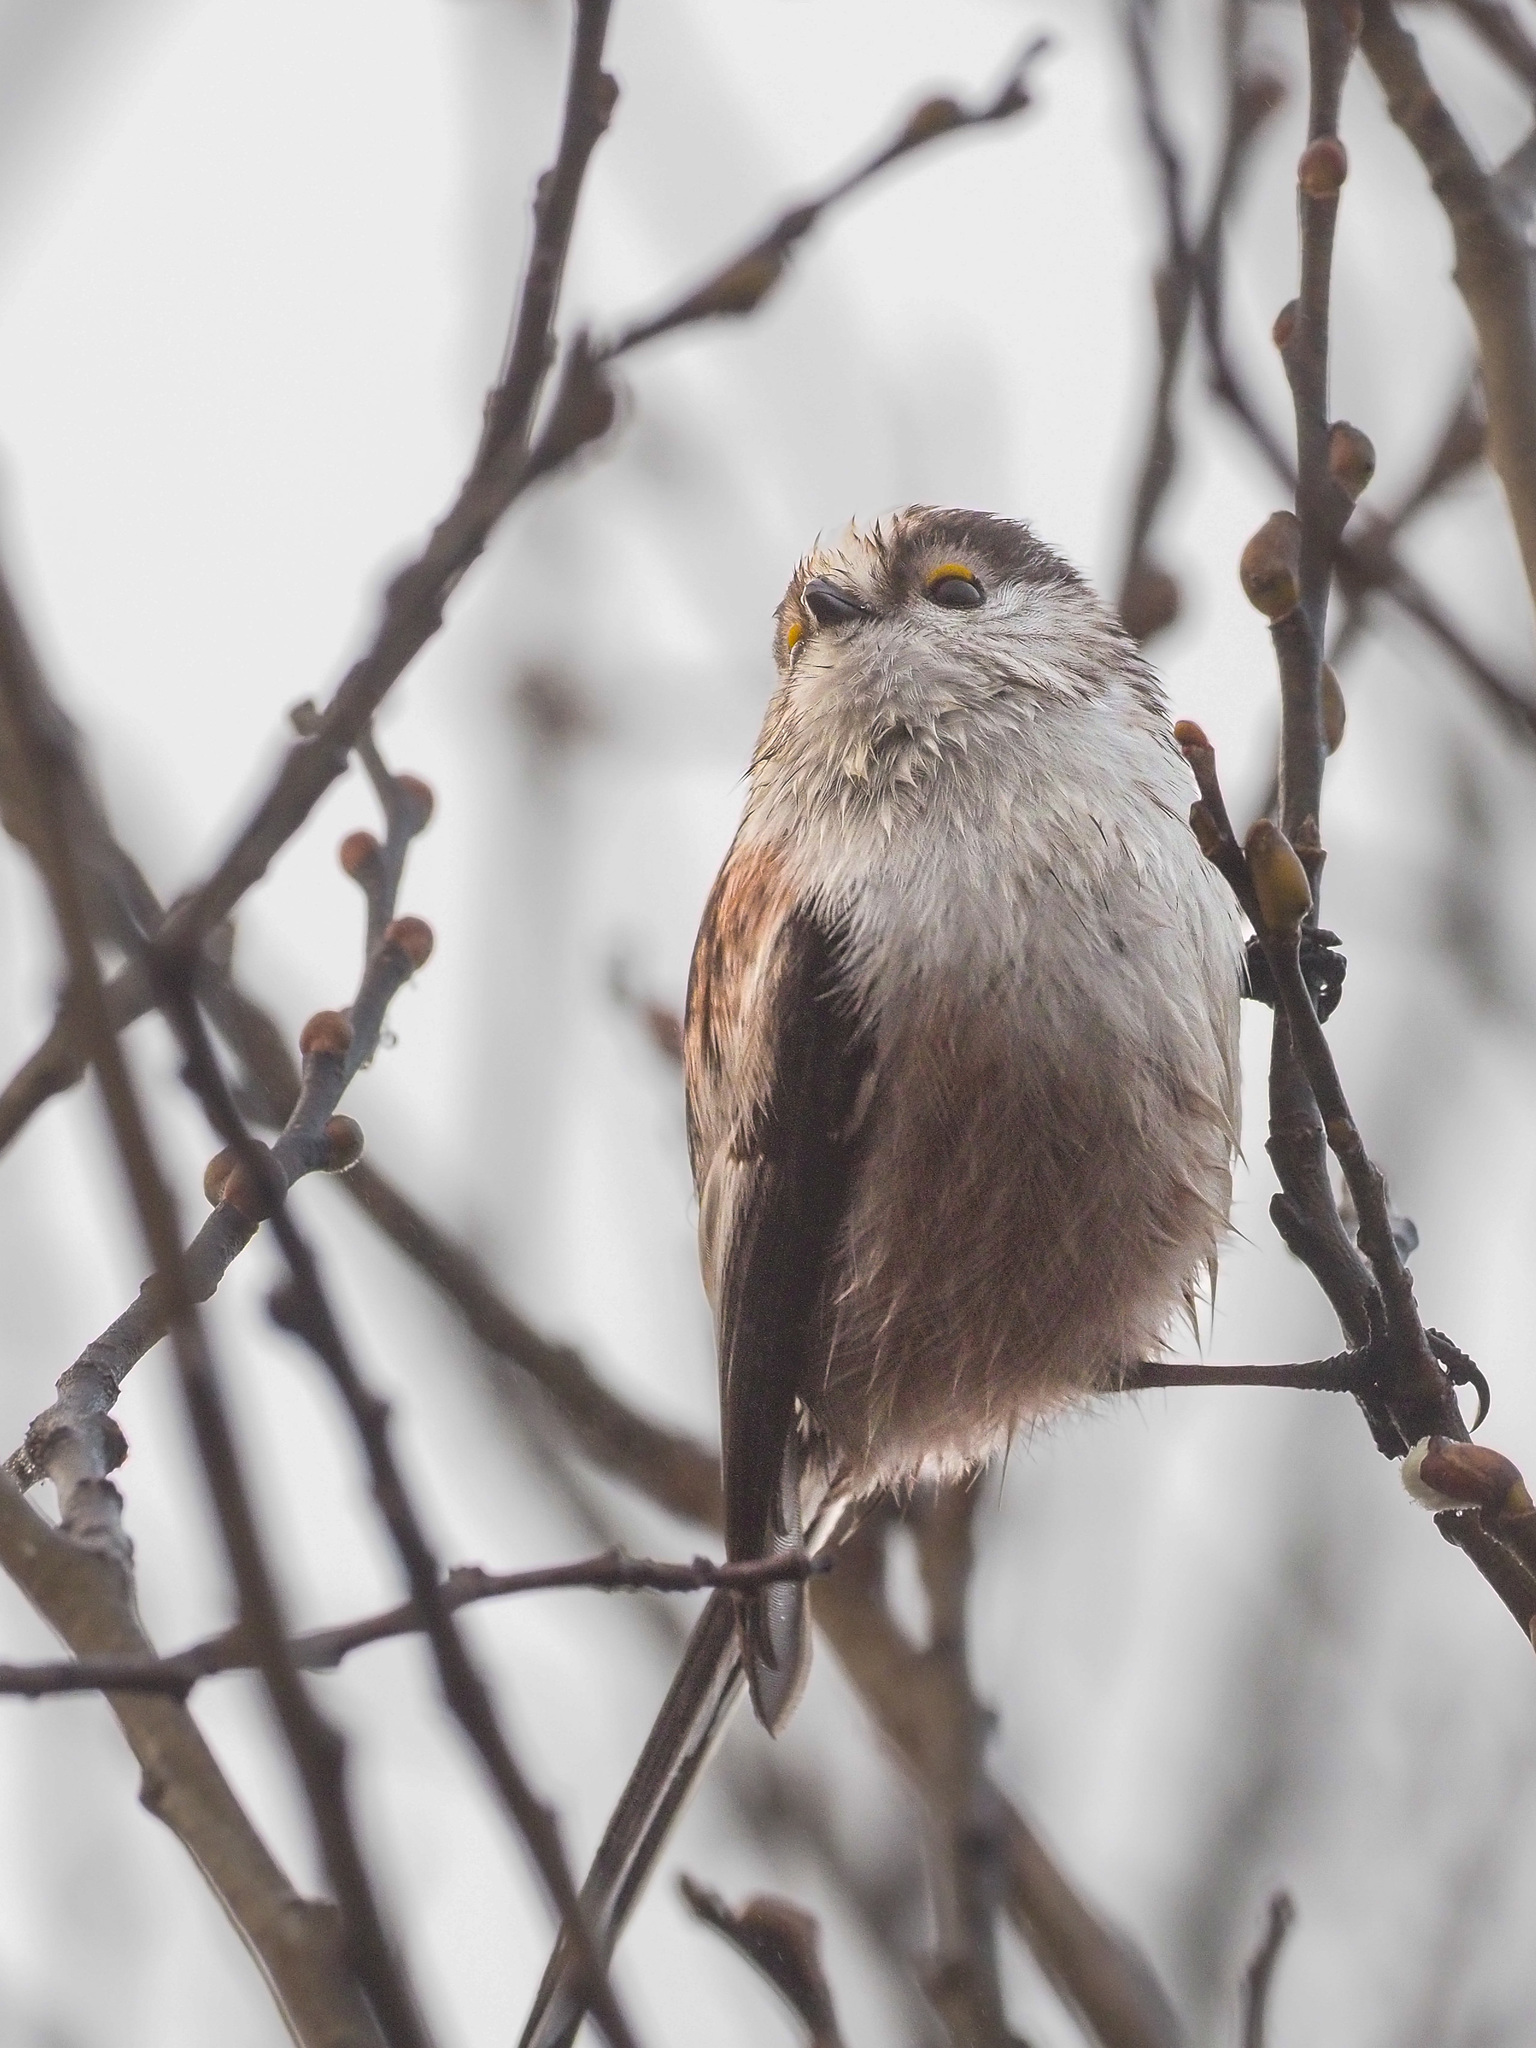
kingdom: Animalia
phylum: Chordata
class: Aves
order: Passeriformes
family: Aegithalidae
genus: Aegithalos
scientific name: Aegithalos caudatus
